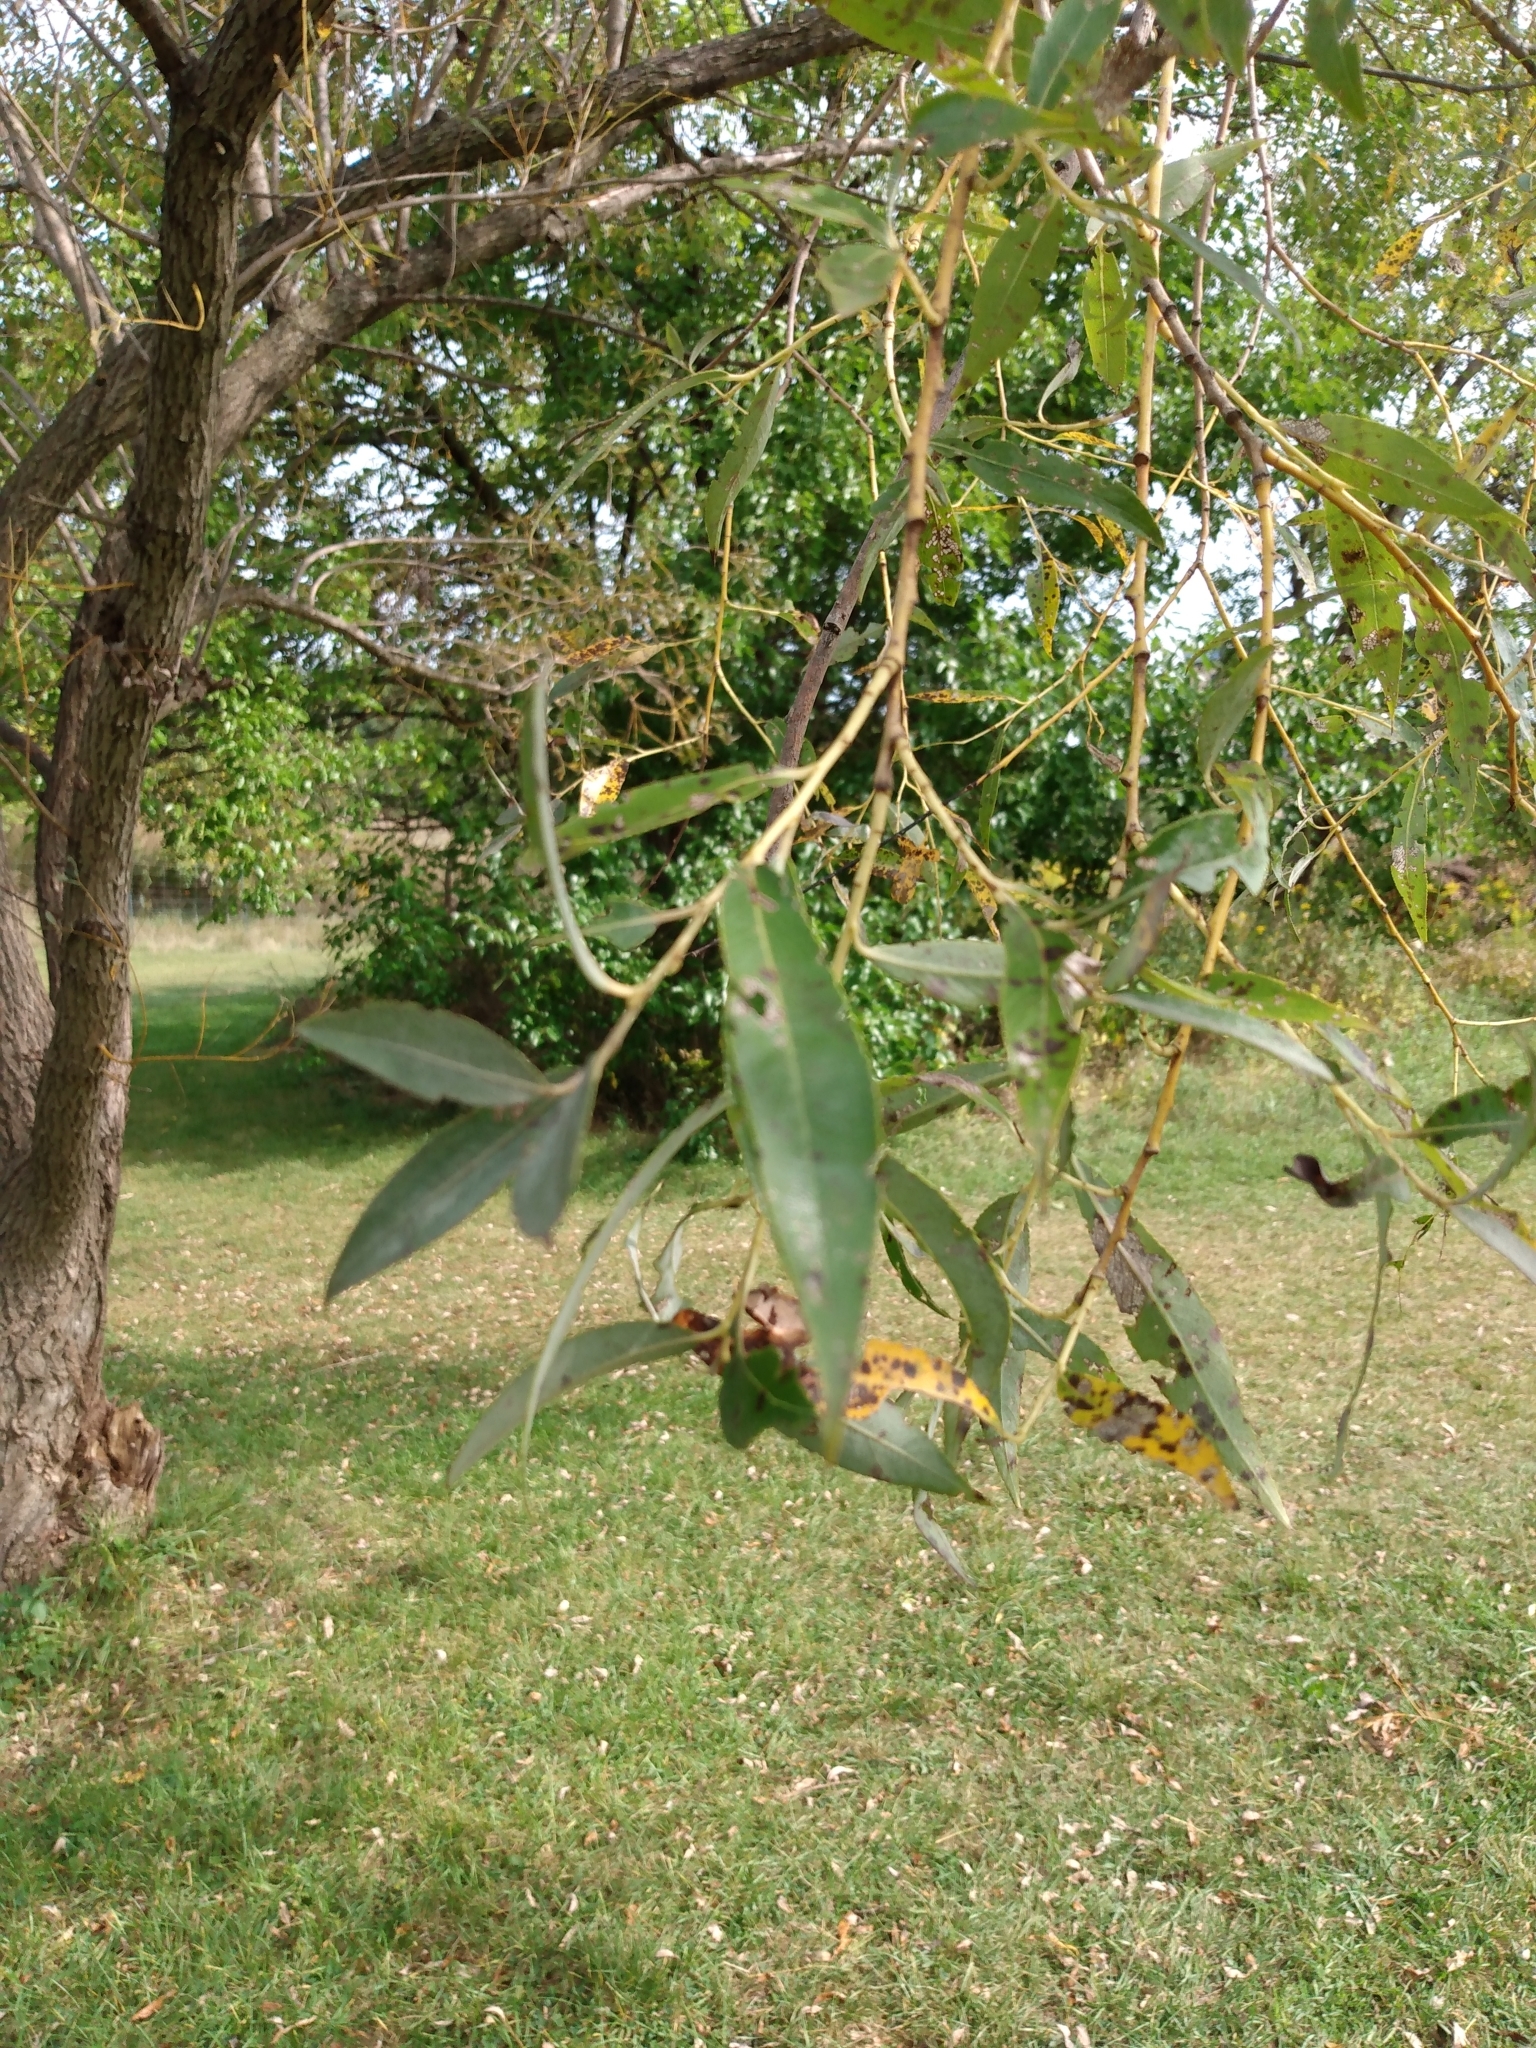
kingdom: Plantae
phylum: Tracheophyta
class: Magnoliopsida
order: Malpighiales
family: Salicaceae
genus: Salix
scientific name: Salix alba
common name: White willow
